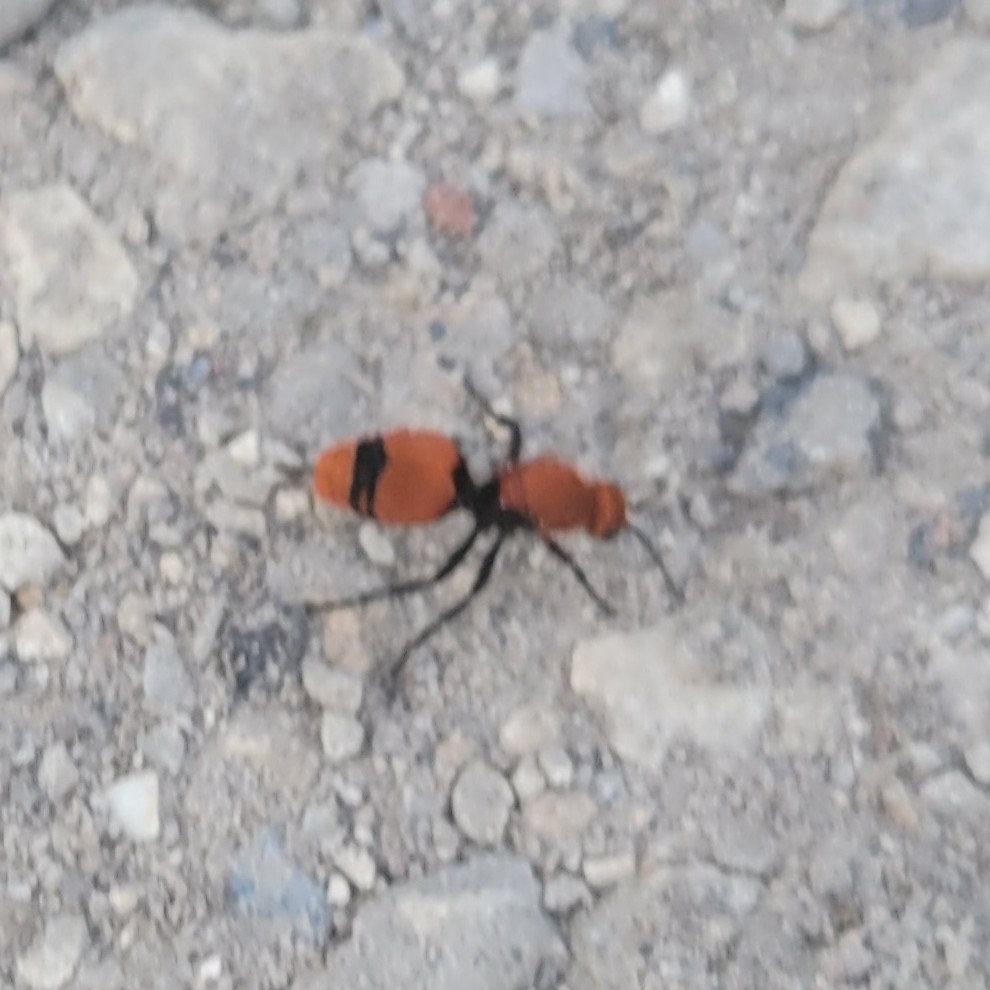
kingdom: Animalia
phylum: Arthropoda
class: Insecta
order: Hymenoptera
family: Mutillidae
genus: Dasymutilla
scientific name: Dasymutilla occidentalis
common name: Common eastern velvet ant
